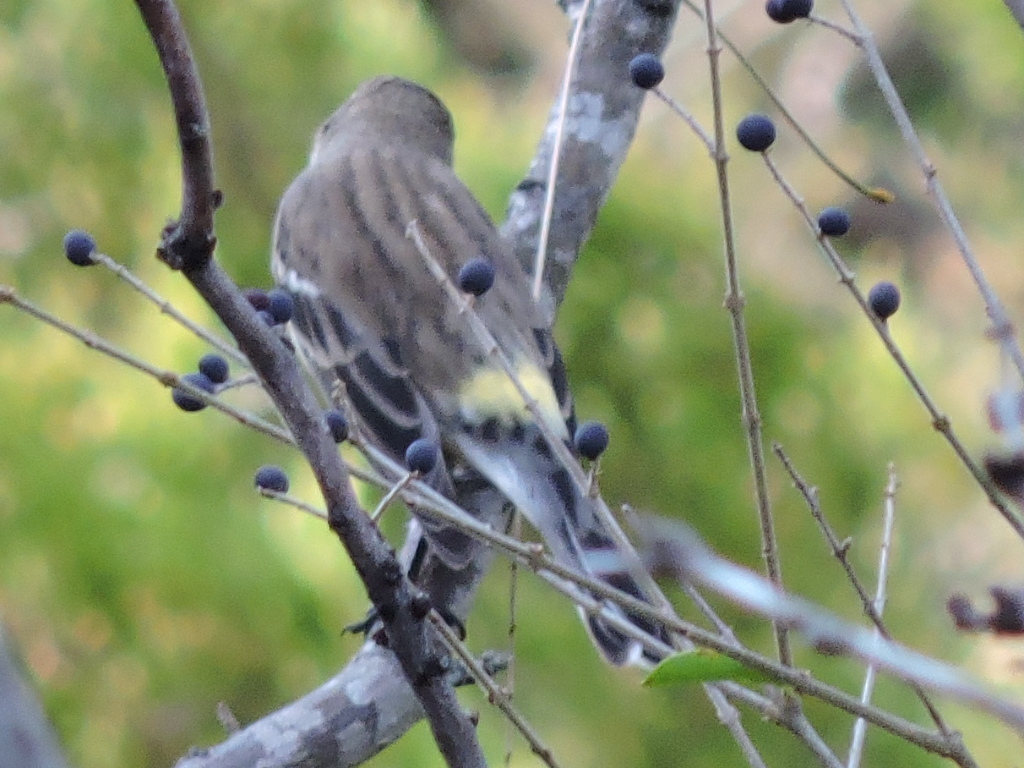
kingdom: Animalia
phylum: Chordata
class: Aves
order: Passeriformes
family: Parulidae
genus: Setophaga
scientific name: Setophaga coronata
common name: Myrtle warbler
